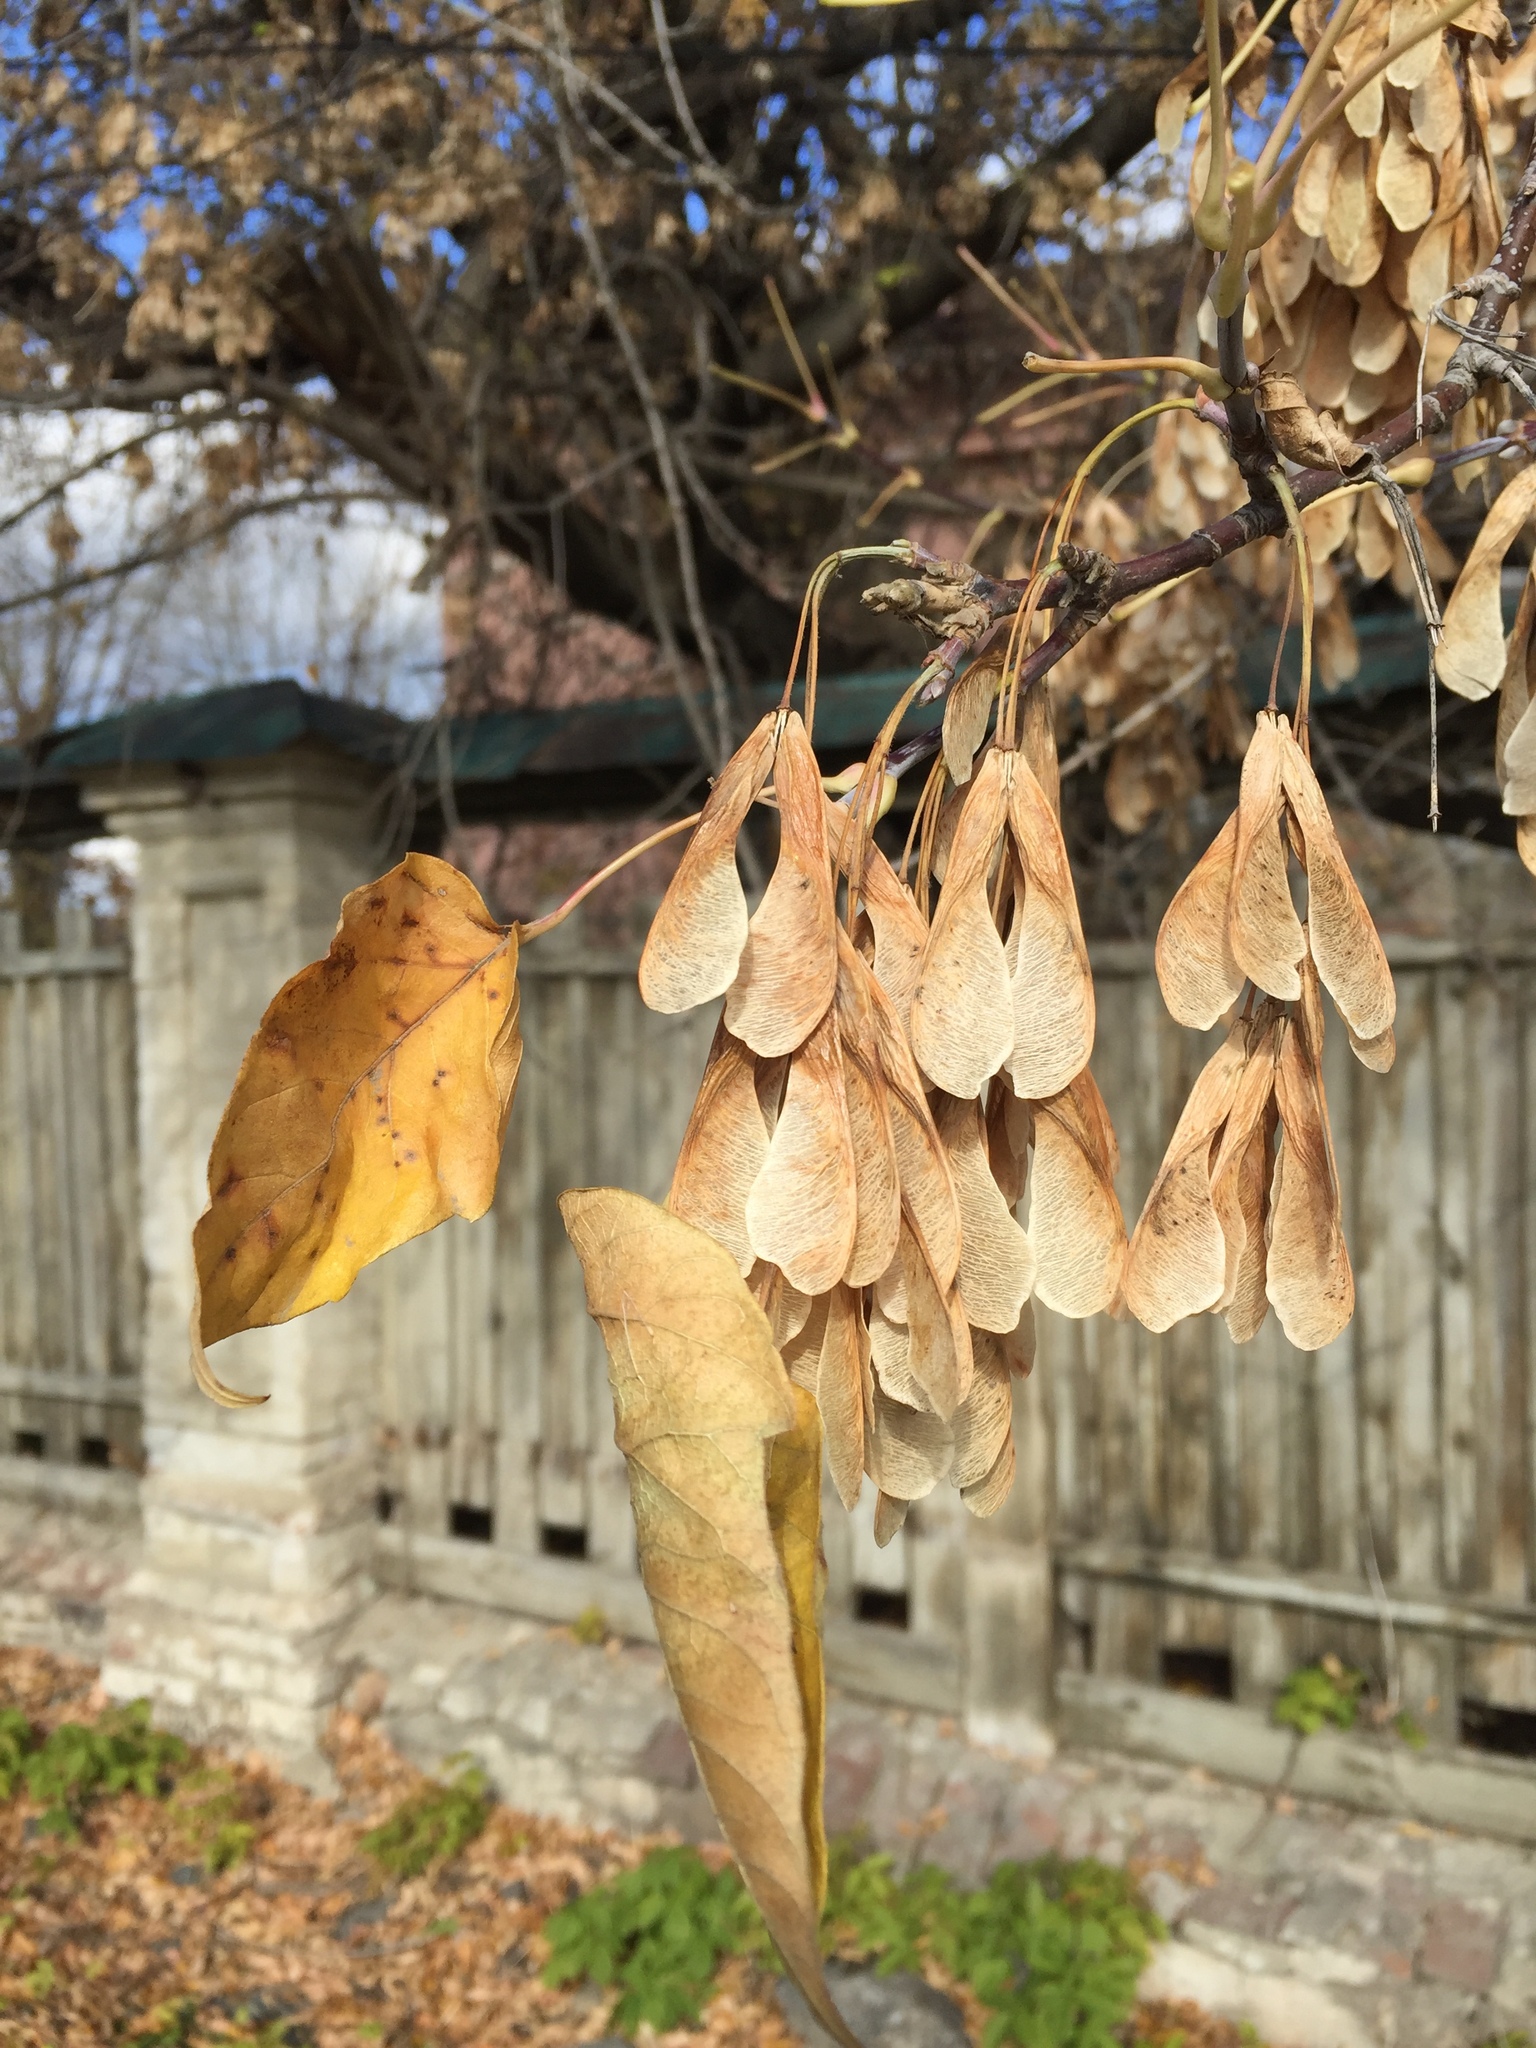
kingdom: Plantae
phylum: Tracheophyta
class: Magnoliopsida
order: Sapindales
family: Sapindaceae
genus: Acer
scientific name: Acer negundo
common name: Ashleaf maple
